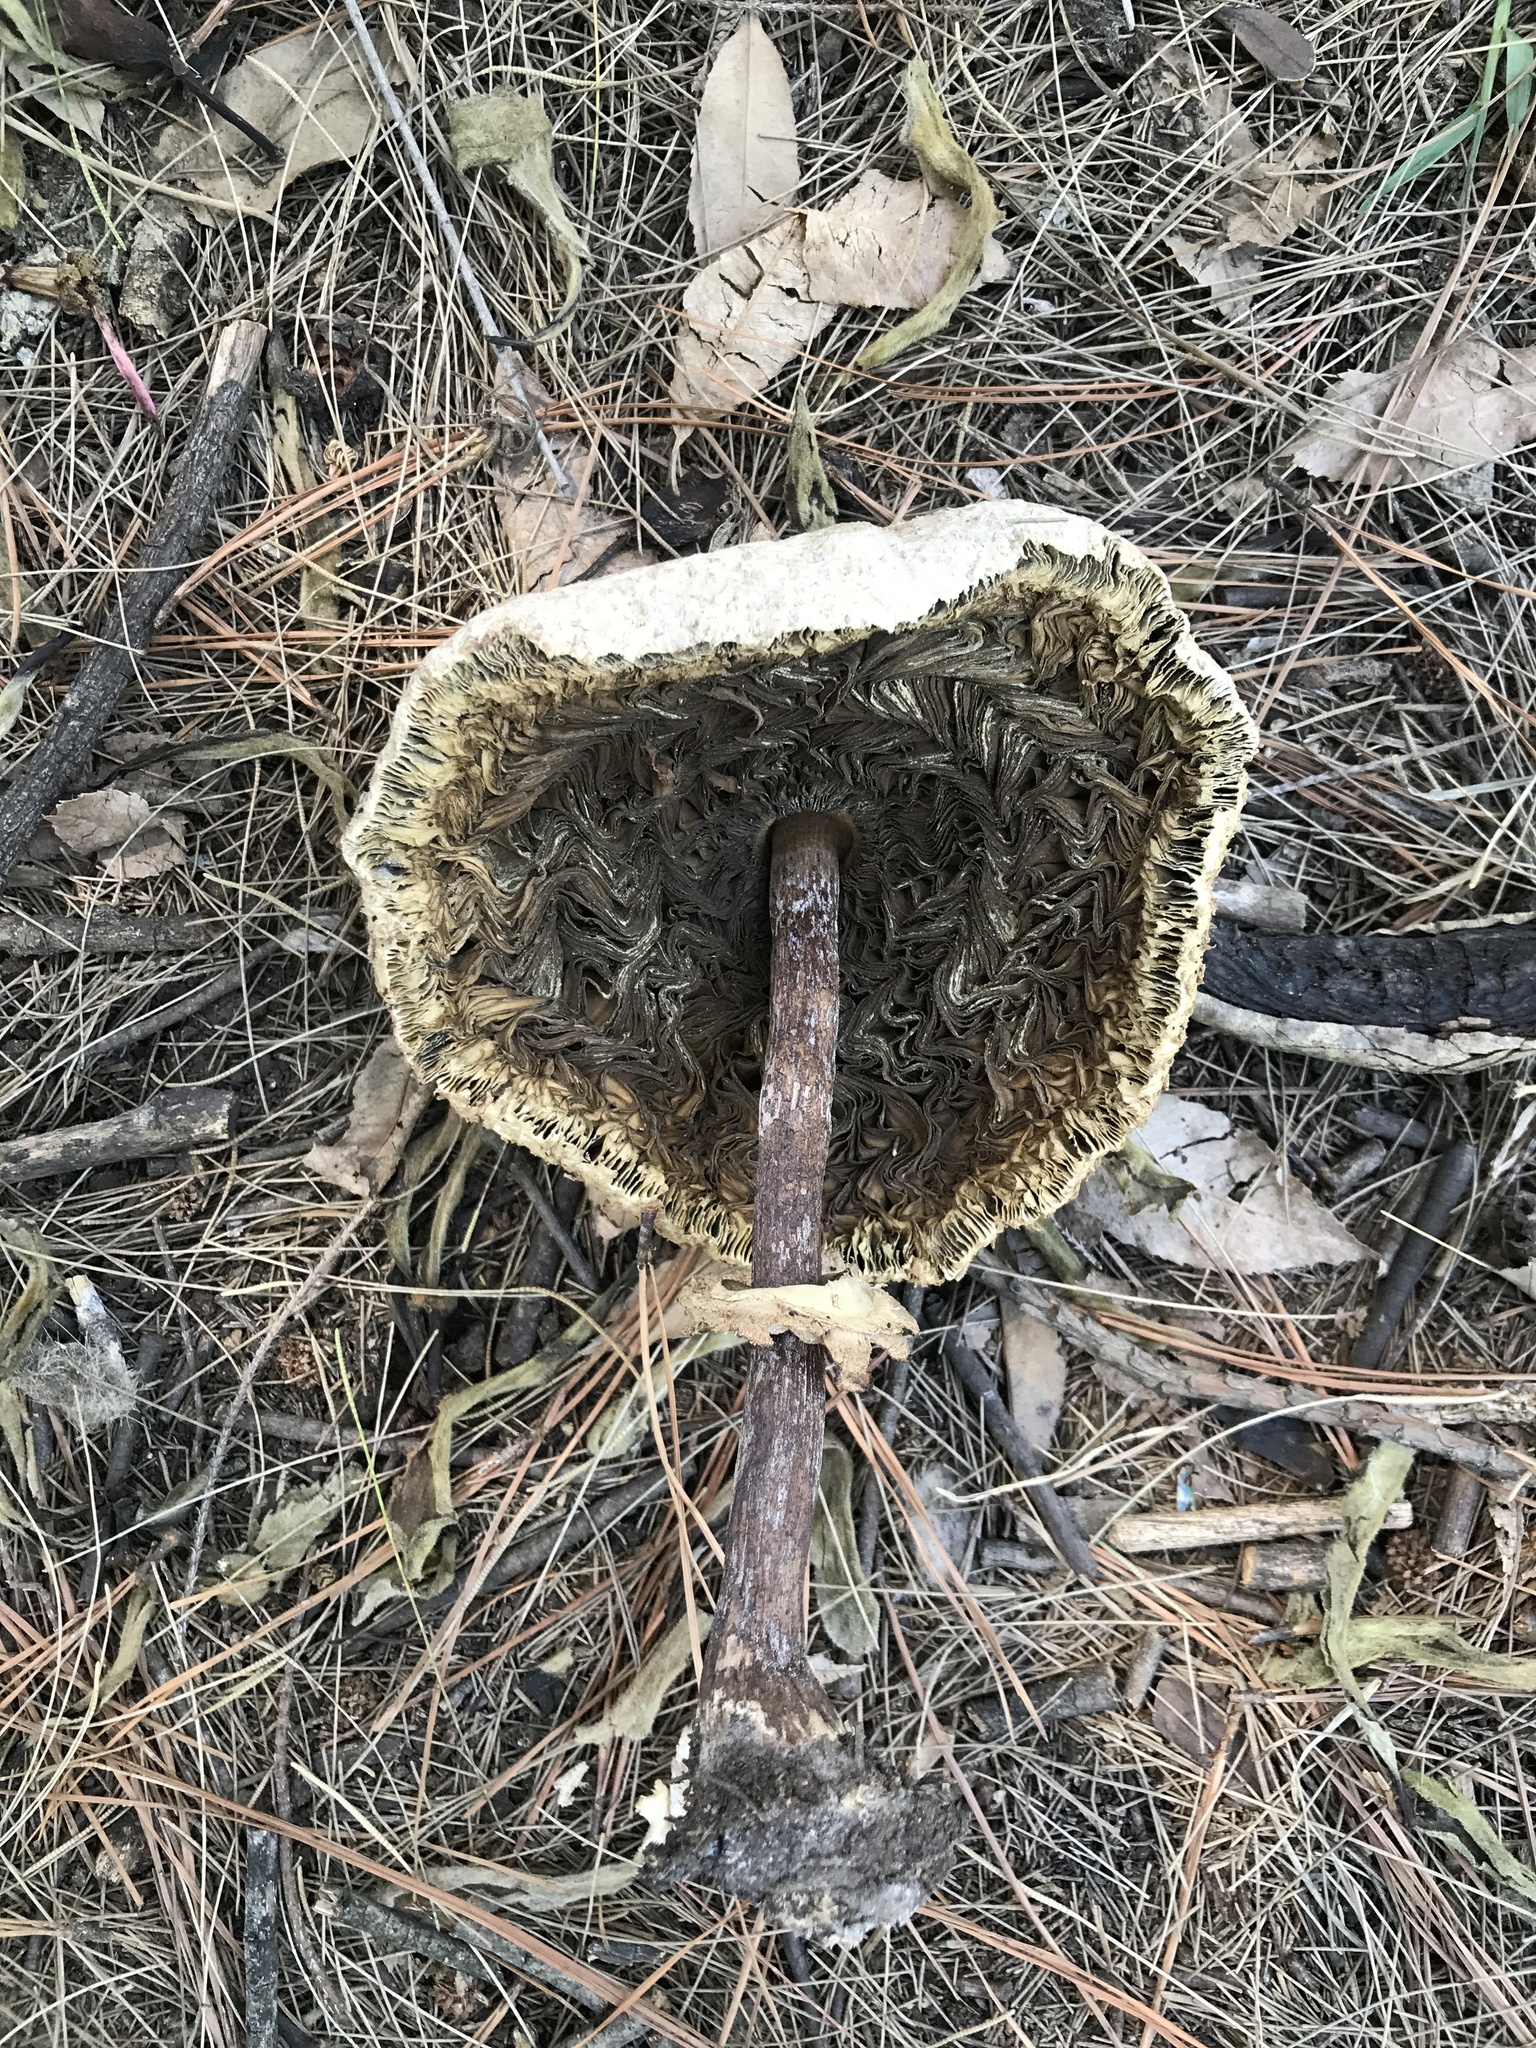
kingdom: Fungi
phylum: Basidiomycota
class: Agaricomycetes
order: Agaricales
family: Agaricaceae
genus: Chlorophyllum
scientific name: Chlorophyllum molybdites
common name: False parasol
